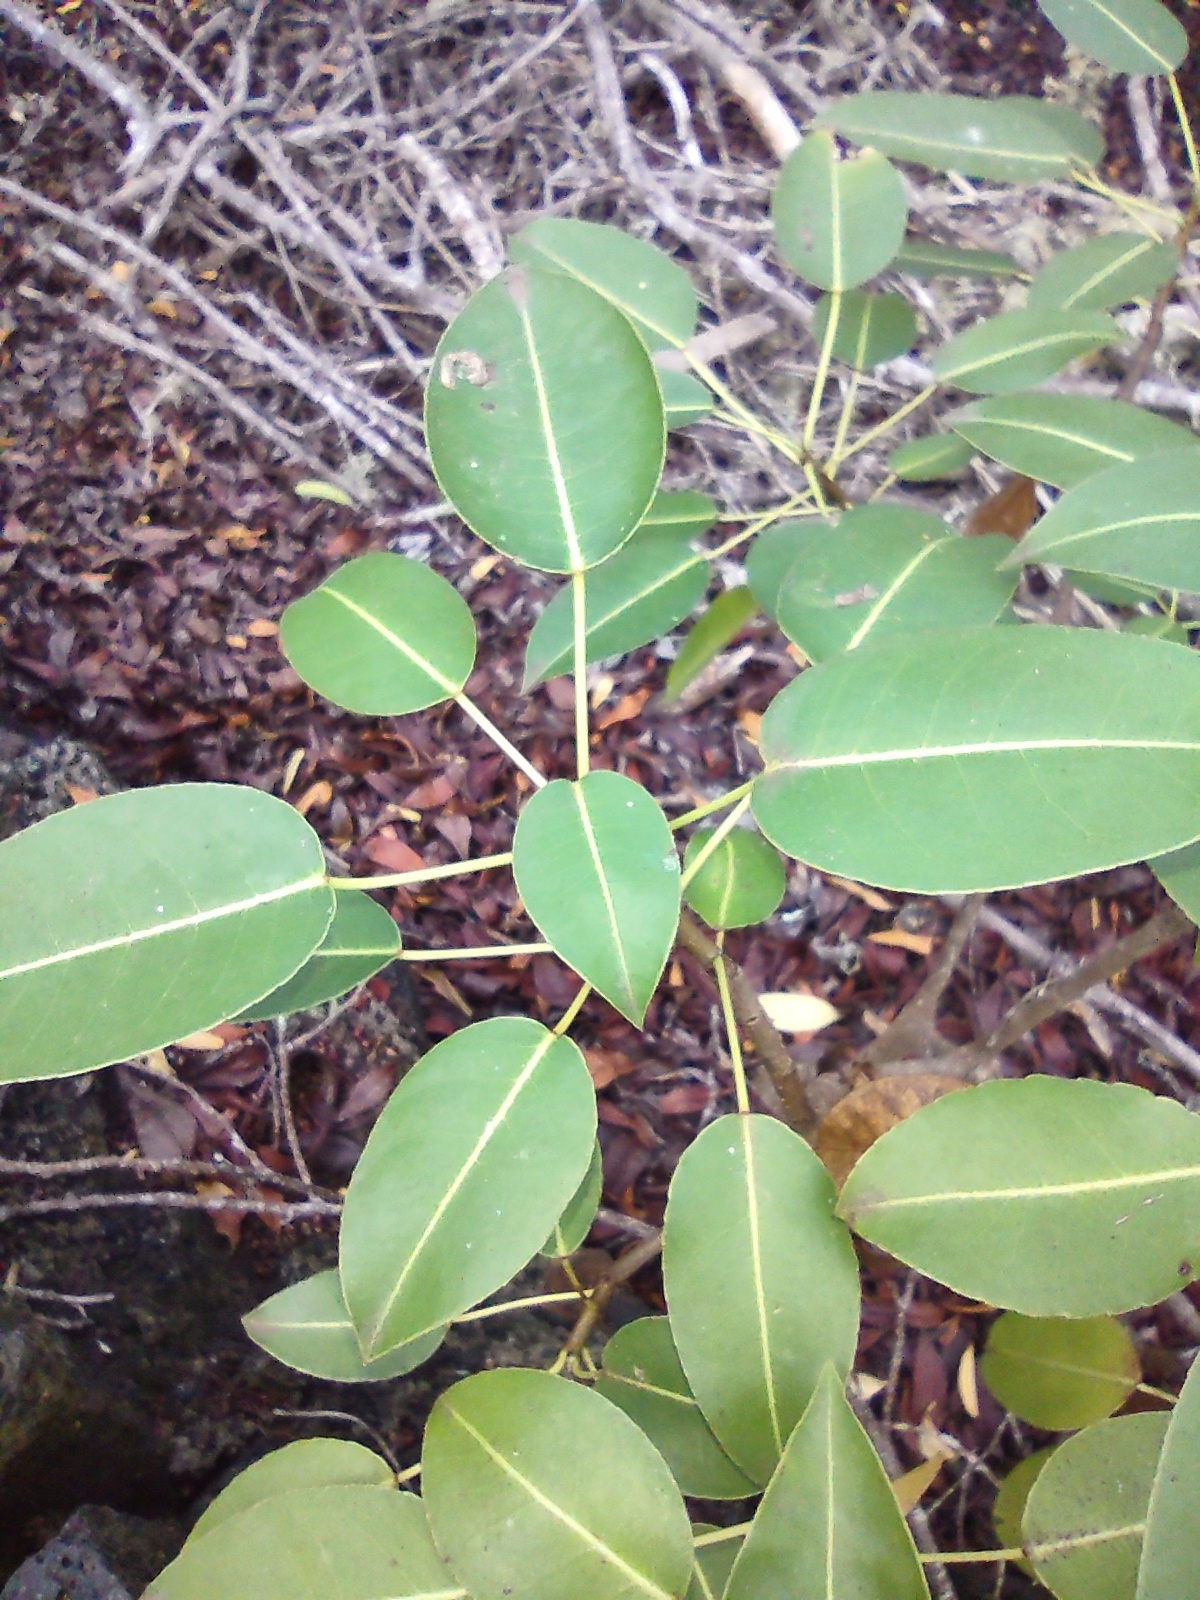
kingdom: Plantae
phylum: Tracheophyta
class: Magnoliopsida
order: Malpighiales
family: Euphorbiaceae
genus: Hippomane
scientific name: Hippomane mancinella
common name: Manchineel
